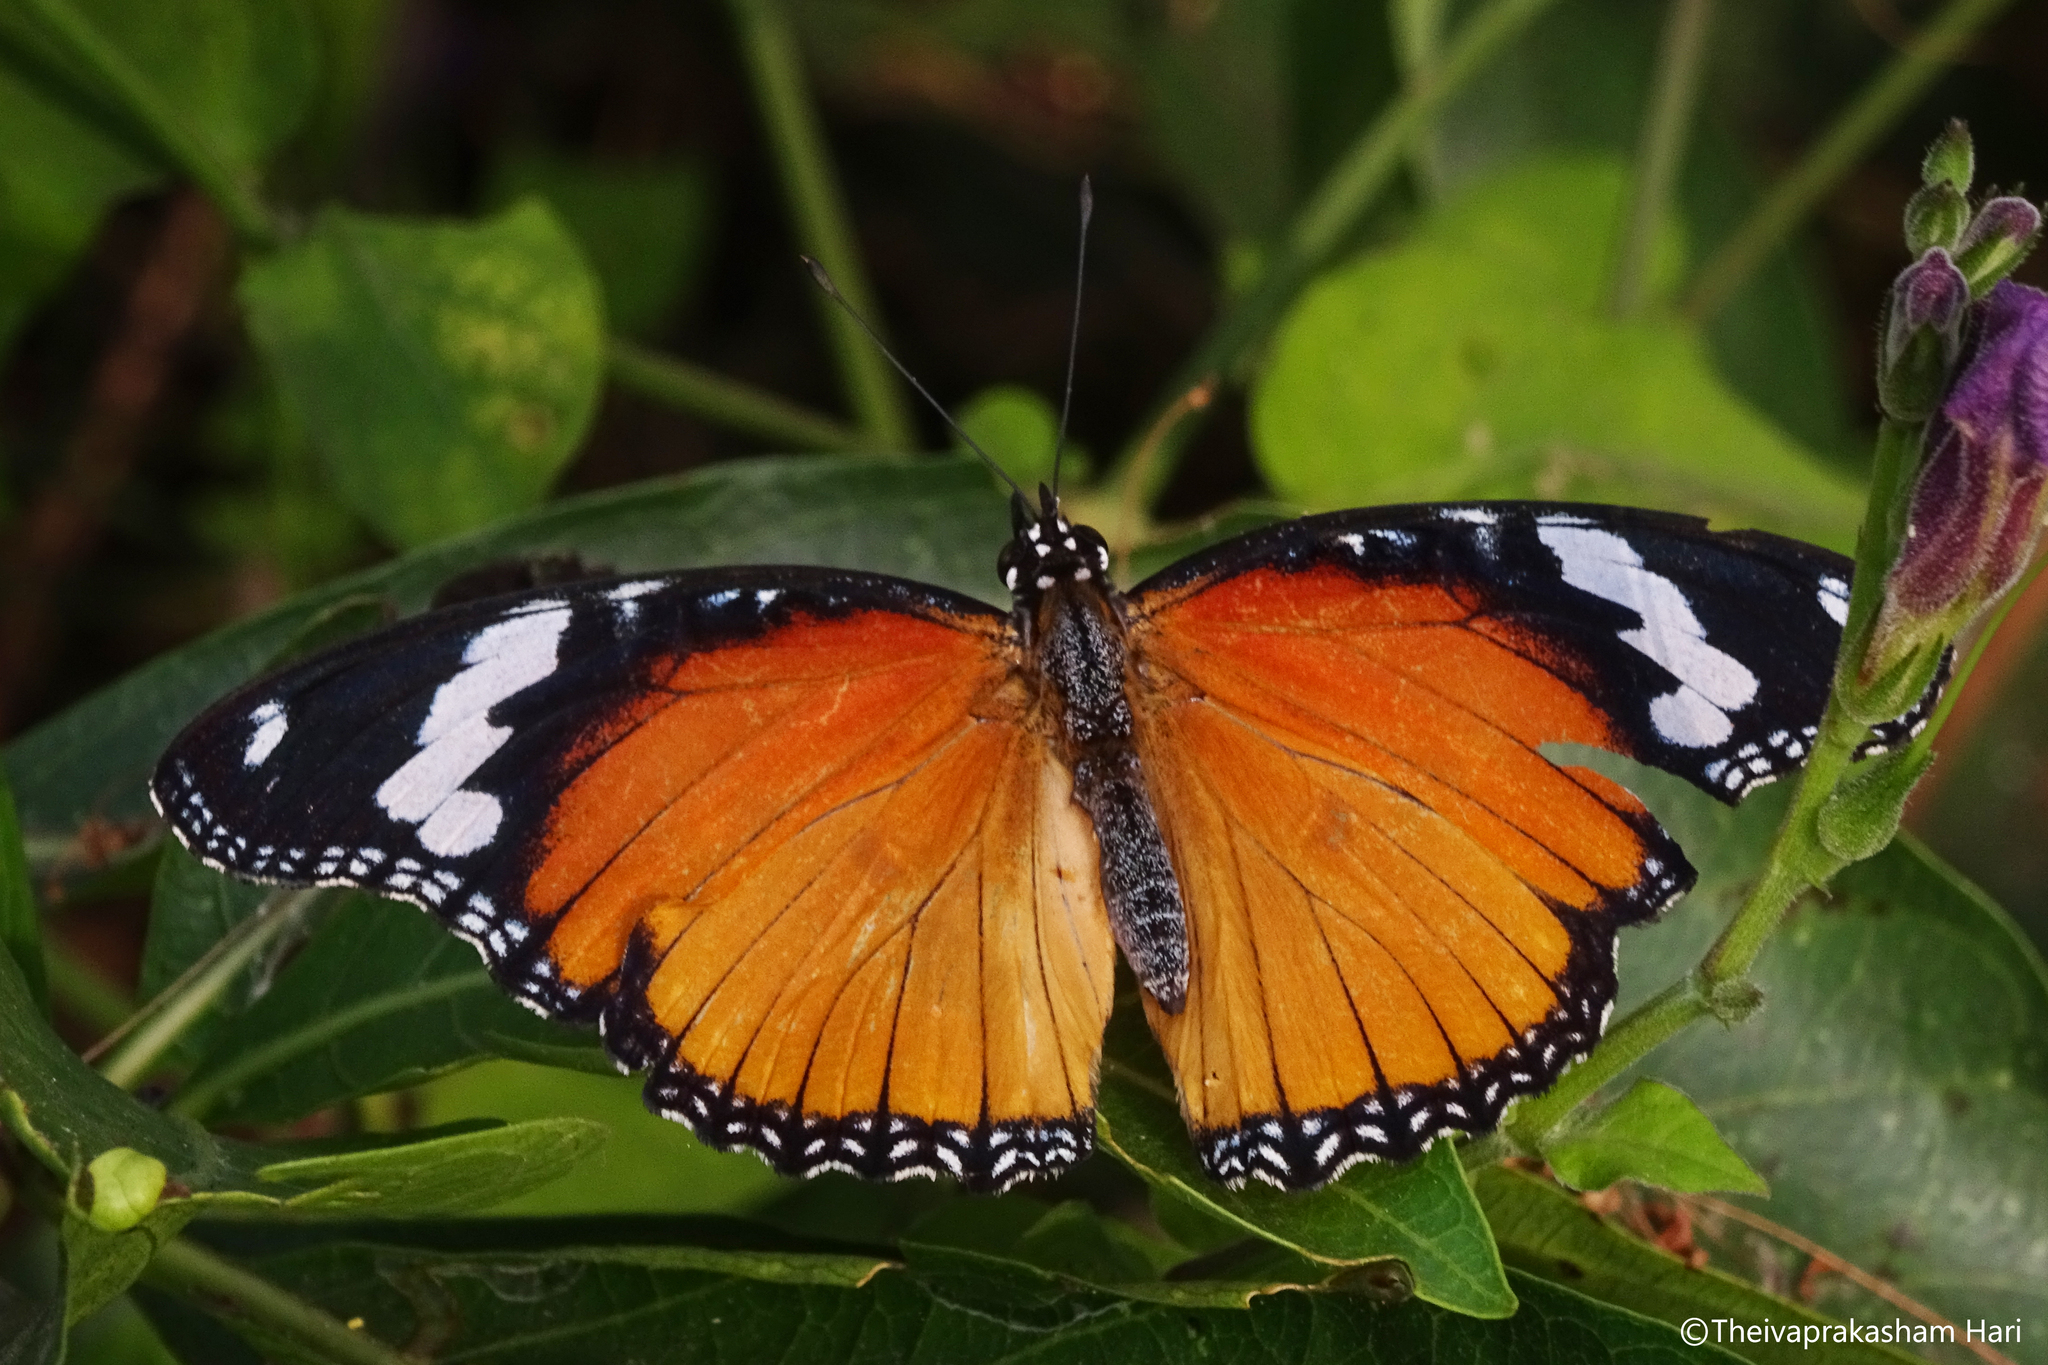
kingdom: Animalia
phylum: Arthropoda
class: Insecta
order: Lepidoptera
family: Nymphalidae
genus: Hypolimnas
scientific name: Hypolimnas misippus
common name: False plain tiger
